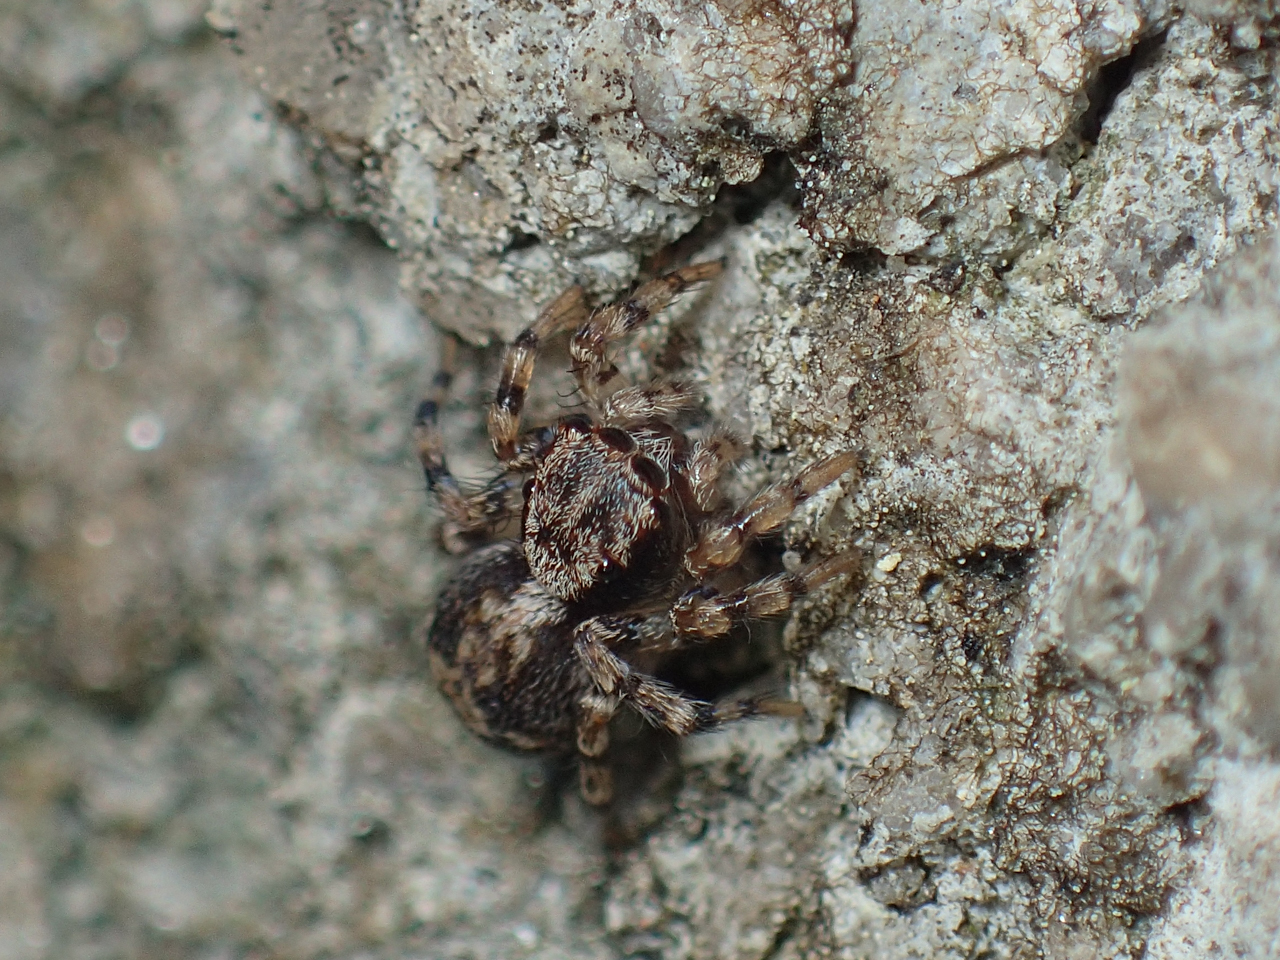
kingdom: Animalia
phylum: Arthropoda
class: Arachnida
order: Araneae
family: Salticidae
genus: Naphrys
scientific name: Naphrys pulex
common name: Flea jumping spider
